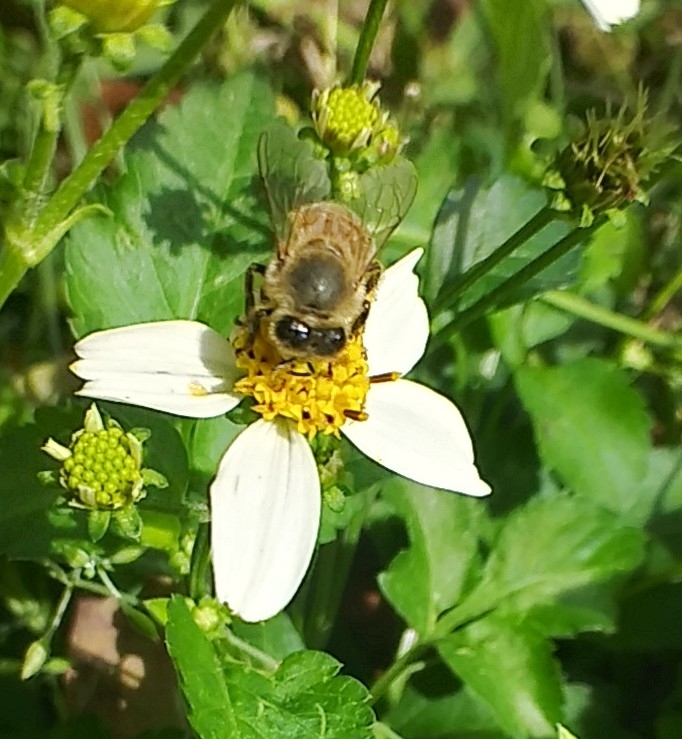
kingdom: Animalia
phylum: Arthropoda
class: Insecta
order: Hymenoptera
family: Apidae
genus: Apis
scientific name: Apis mellifera
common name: Honey bee
